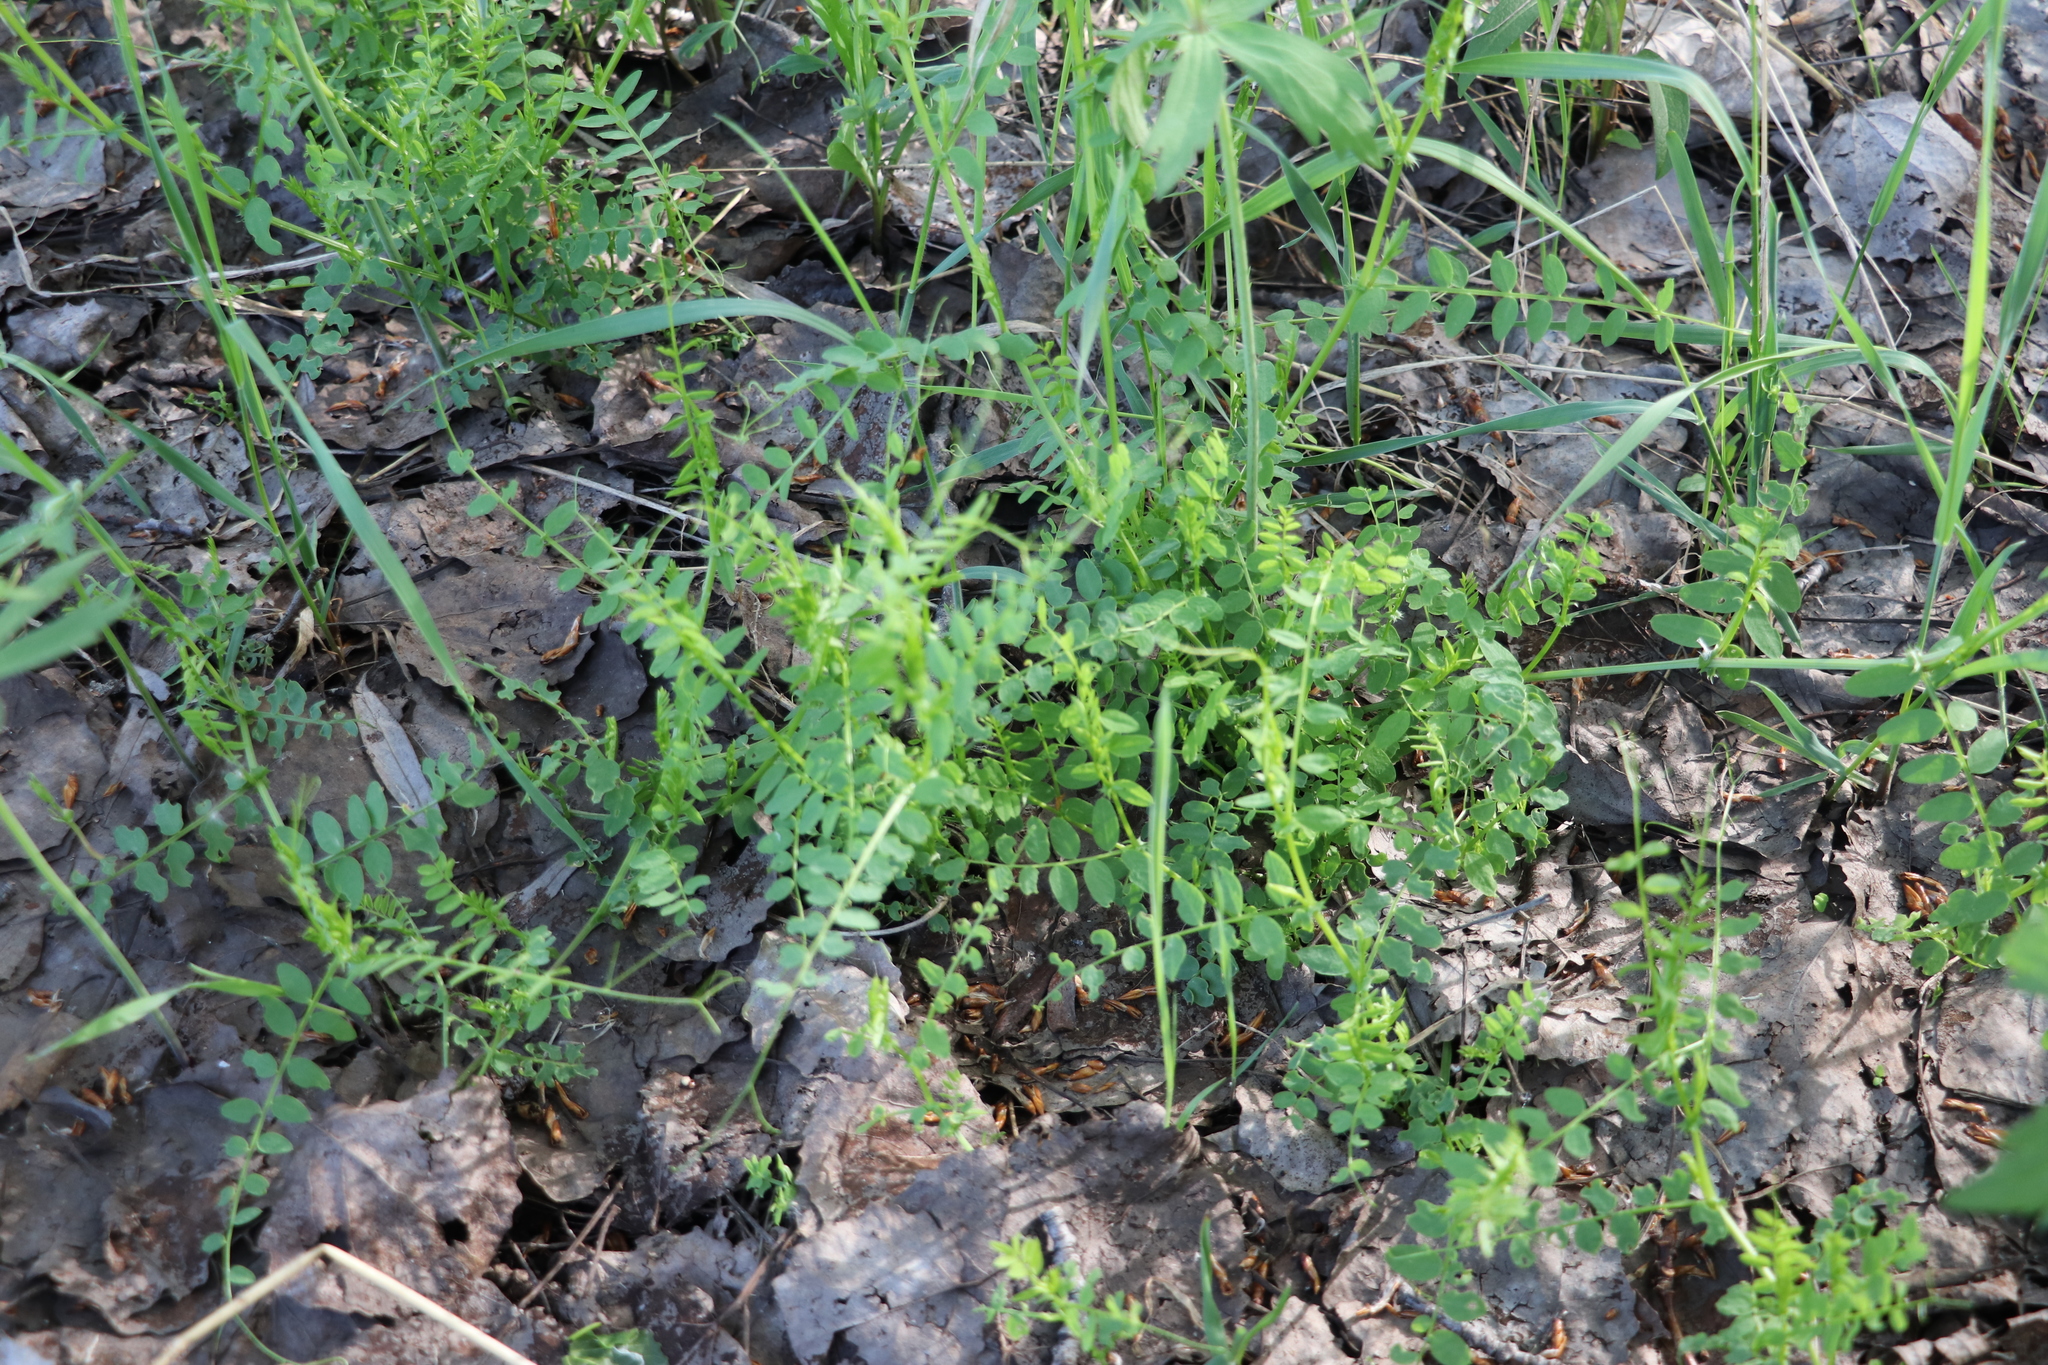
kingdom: Plantae
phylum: Tracheophyta
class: Magnoliopsida
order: Fabales
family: Fabaceae
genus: Vicia
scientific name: Vicia sylvatica
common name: Wood vetch
